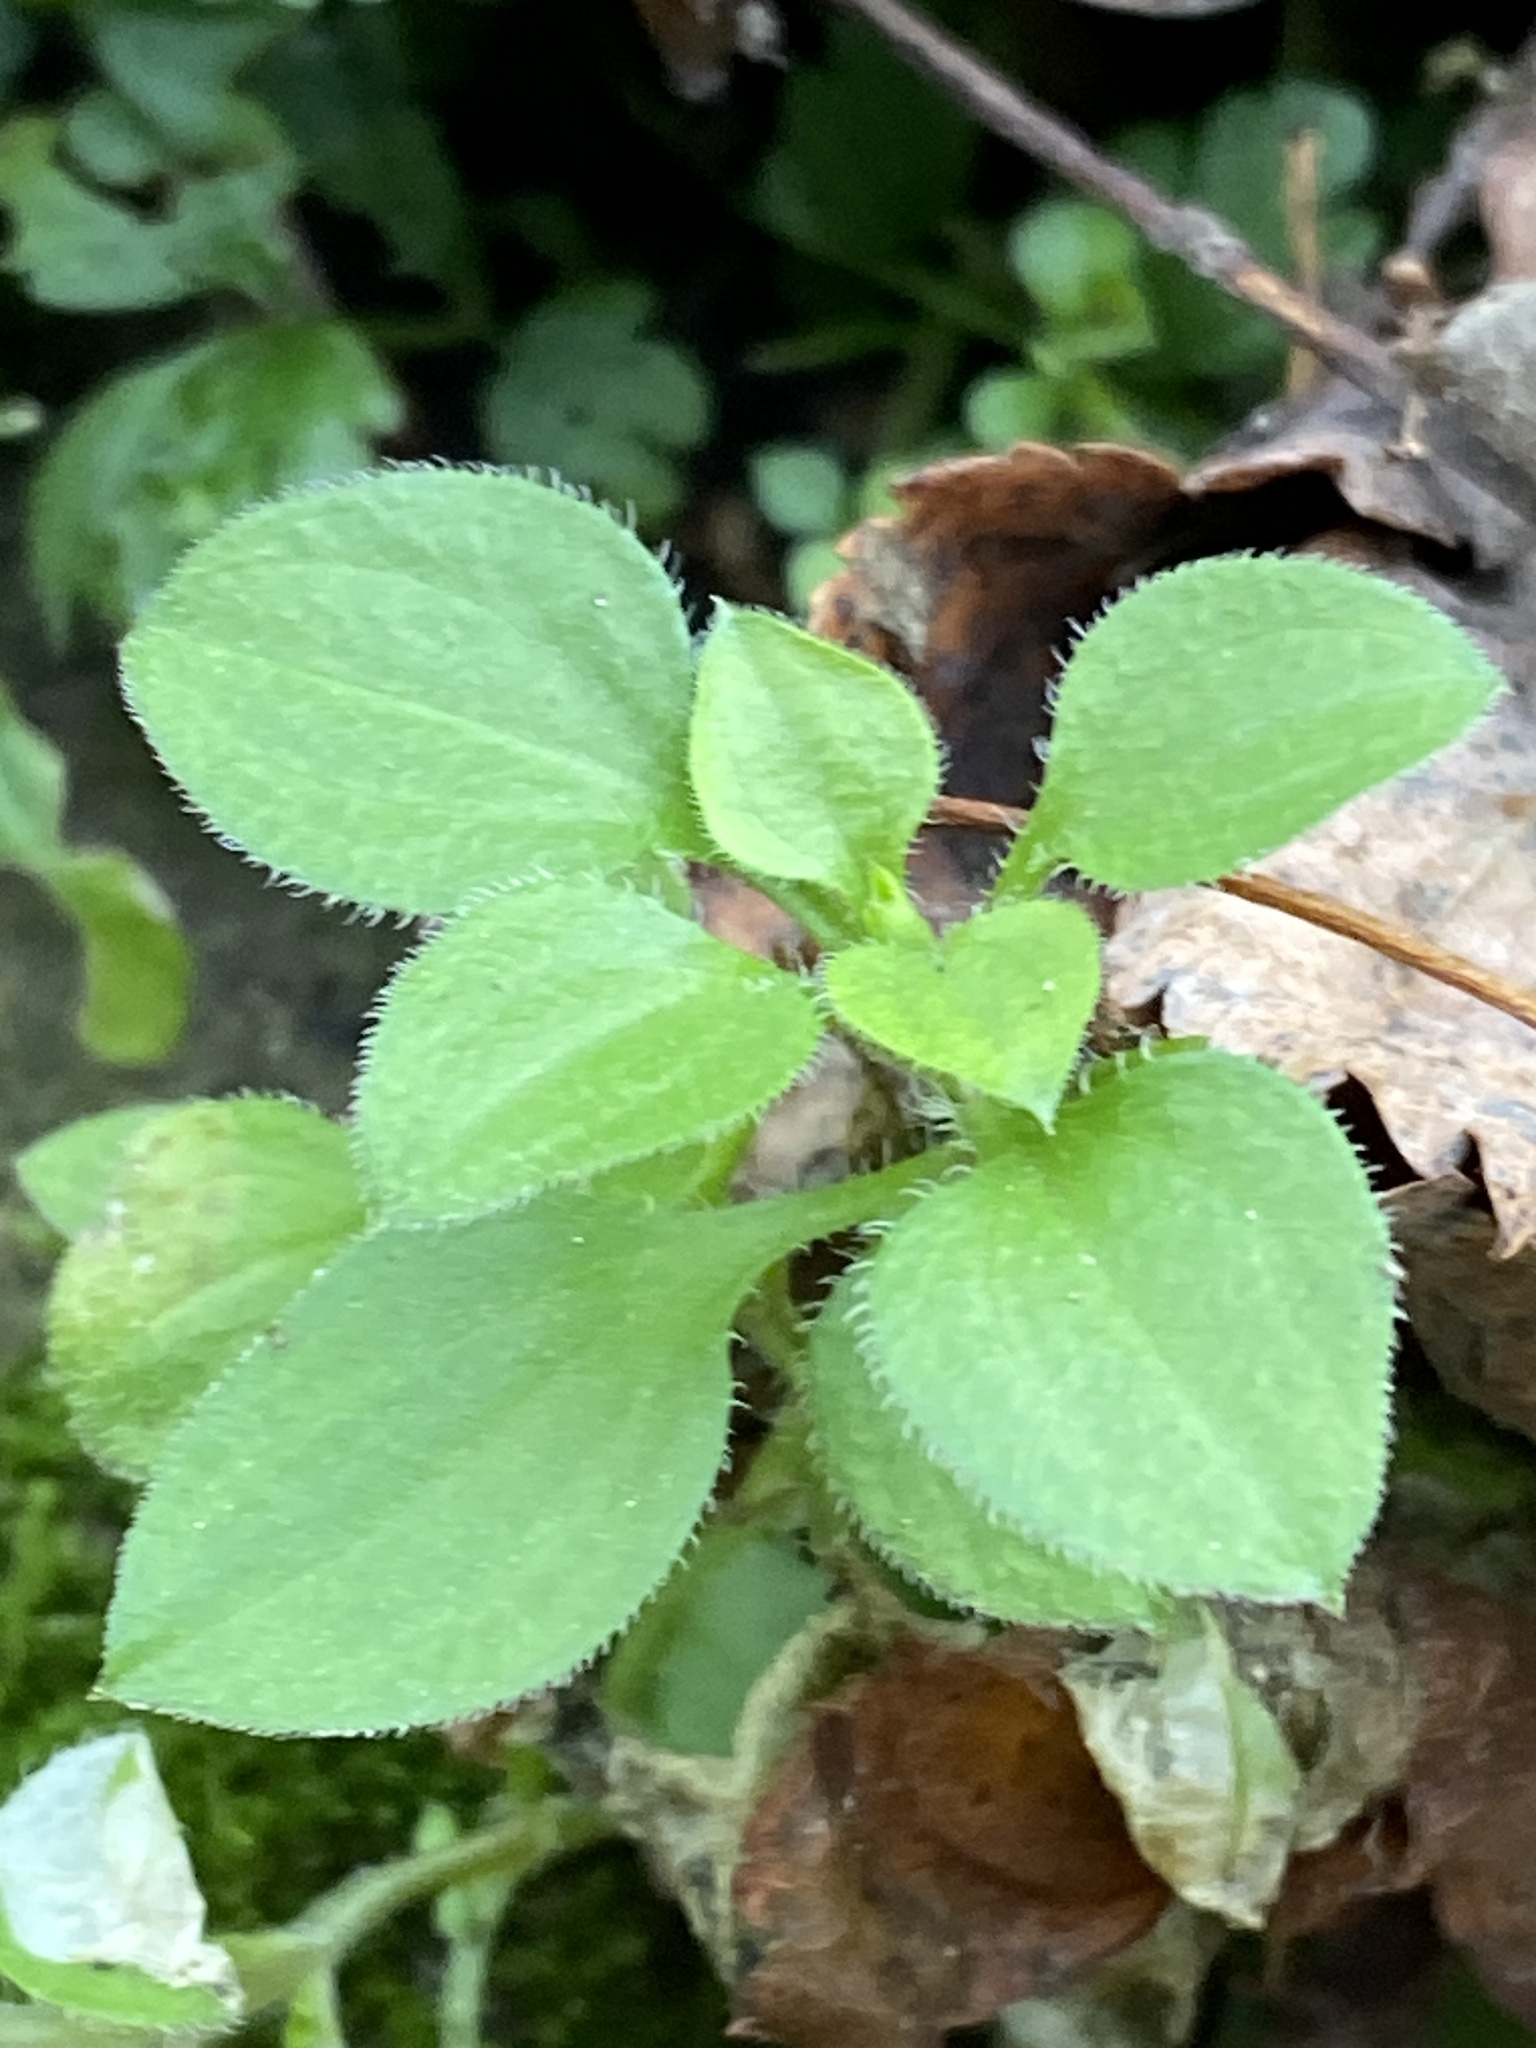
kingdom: Plantae
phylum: Tracheophyta
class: Magnoliopsida
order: Caryophyllales
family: Caryophyllaceae
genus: Moehringia
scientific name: Moehringia trinervia
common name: Three-nerved sandwort
